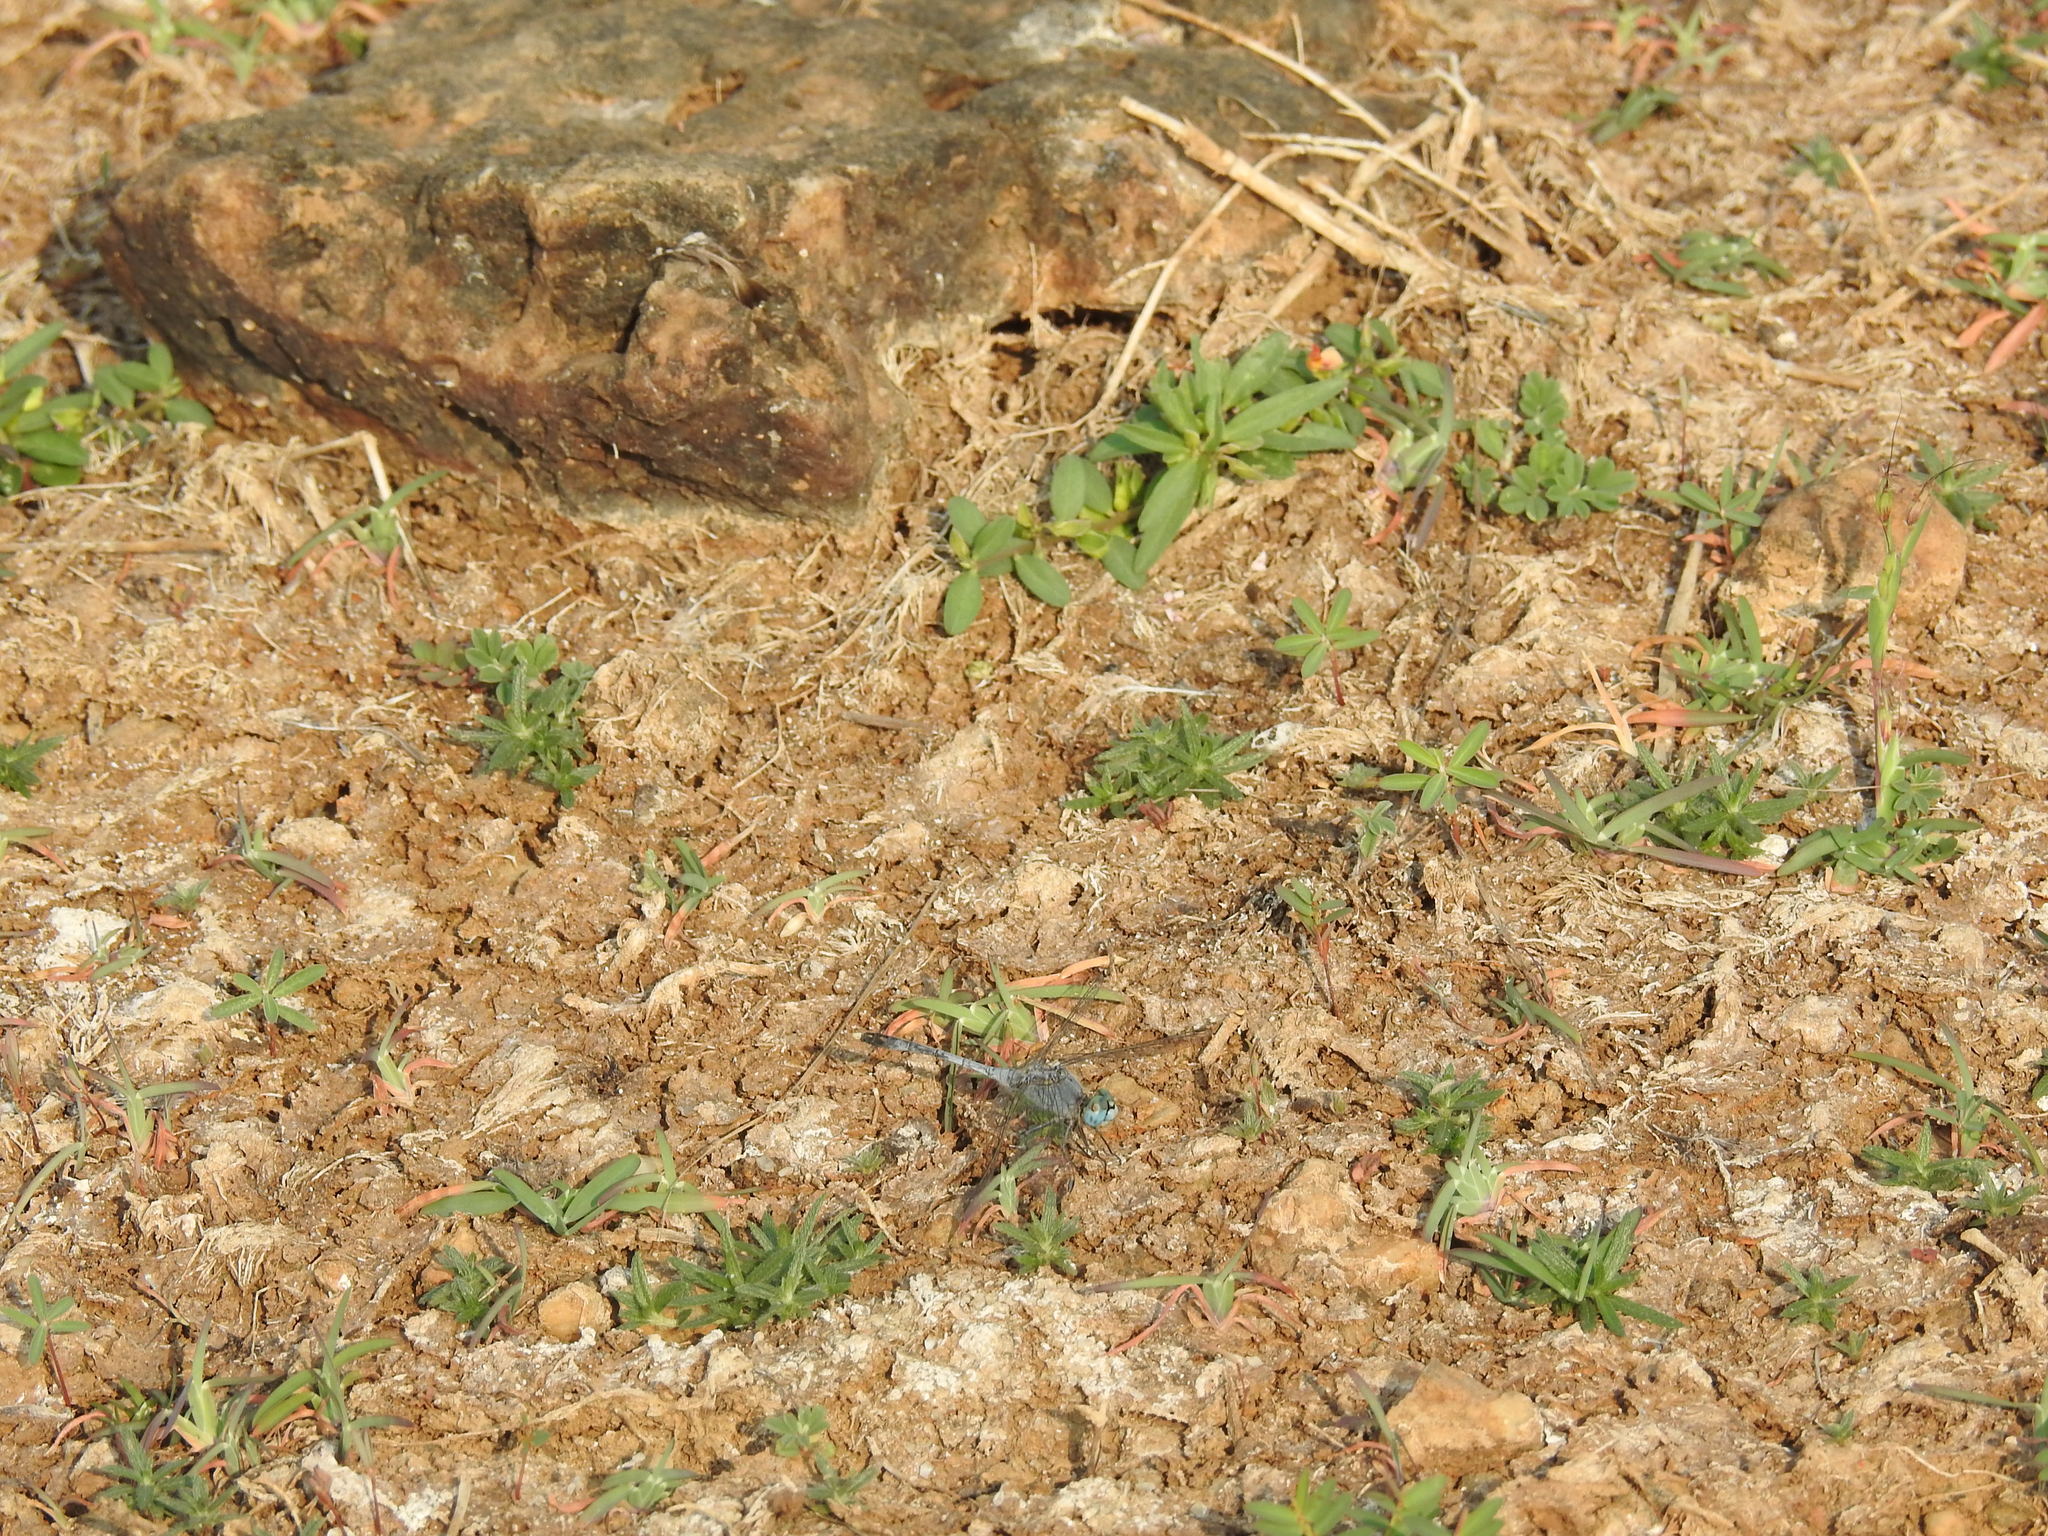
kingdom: Animalia
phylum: Arthropoda
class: Insecta
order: Odonata
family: Libellulidae
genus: Diplacodes
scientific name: Diplacodes trivialis
